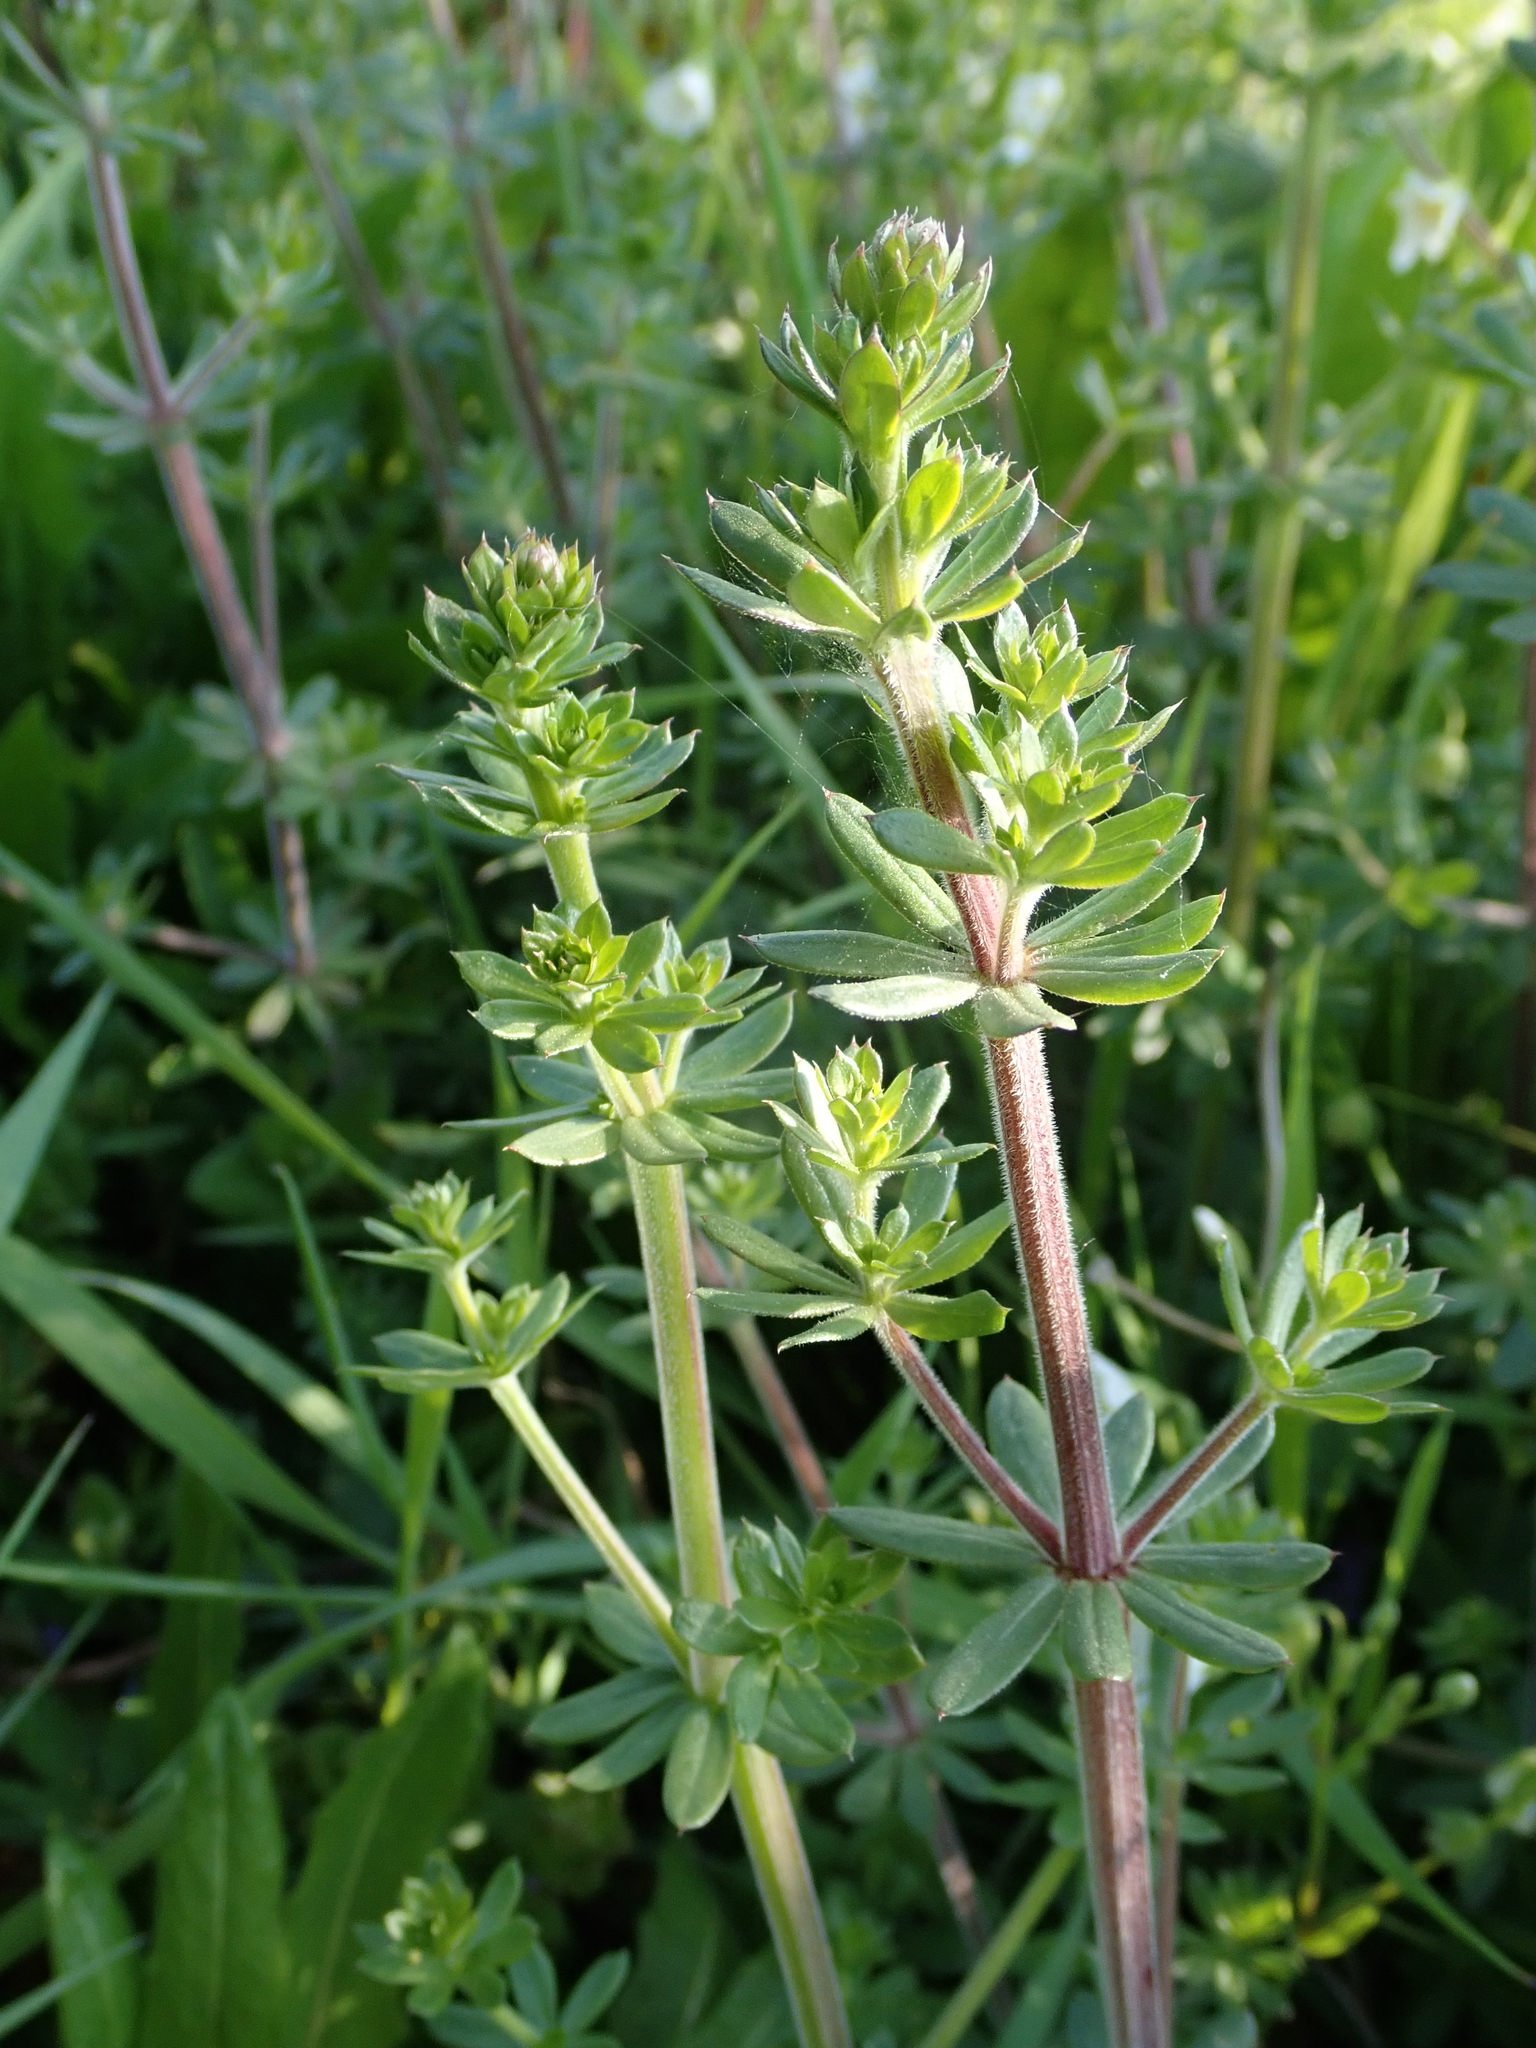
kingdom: Plantae
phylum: Tracheophyta
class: Magnoliopsida
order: Gentianales
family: Rubiaceae
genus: Galium
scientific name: Galium mollugo
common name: Hedge bedstraw
